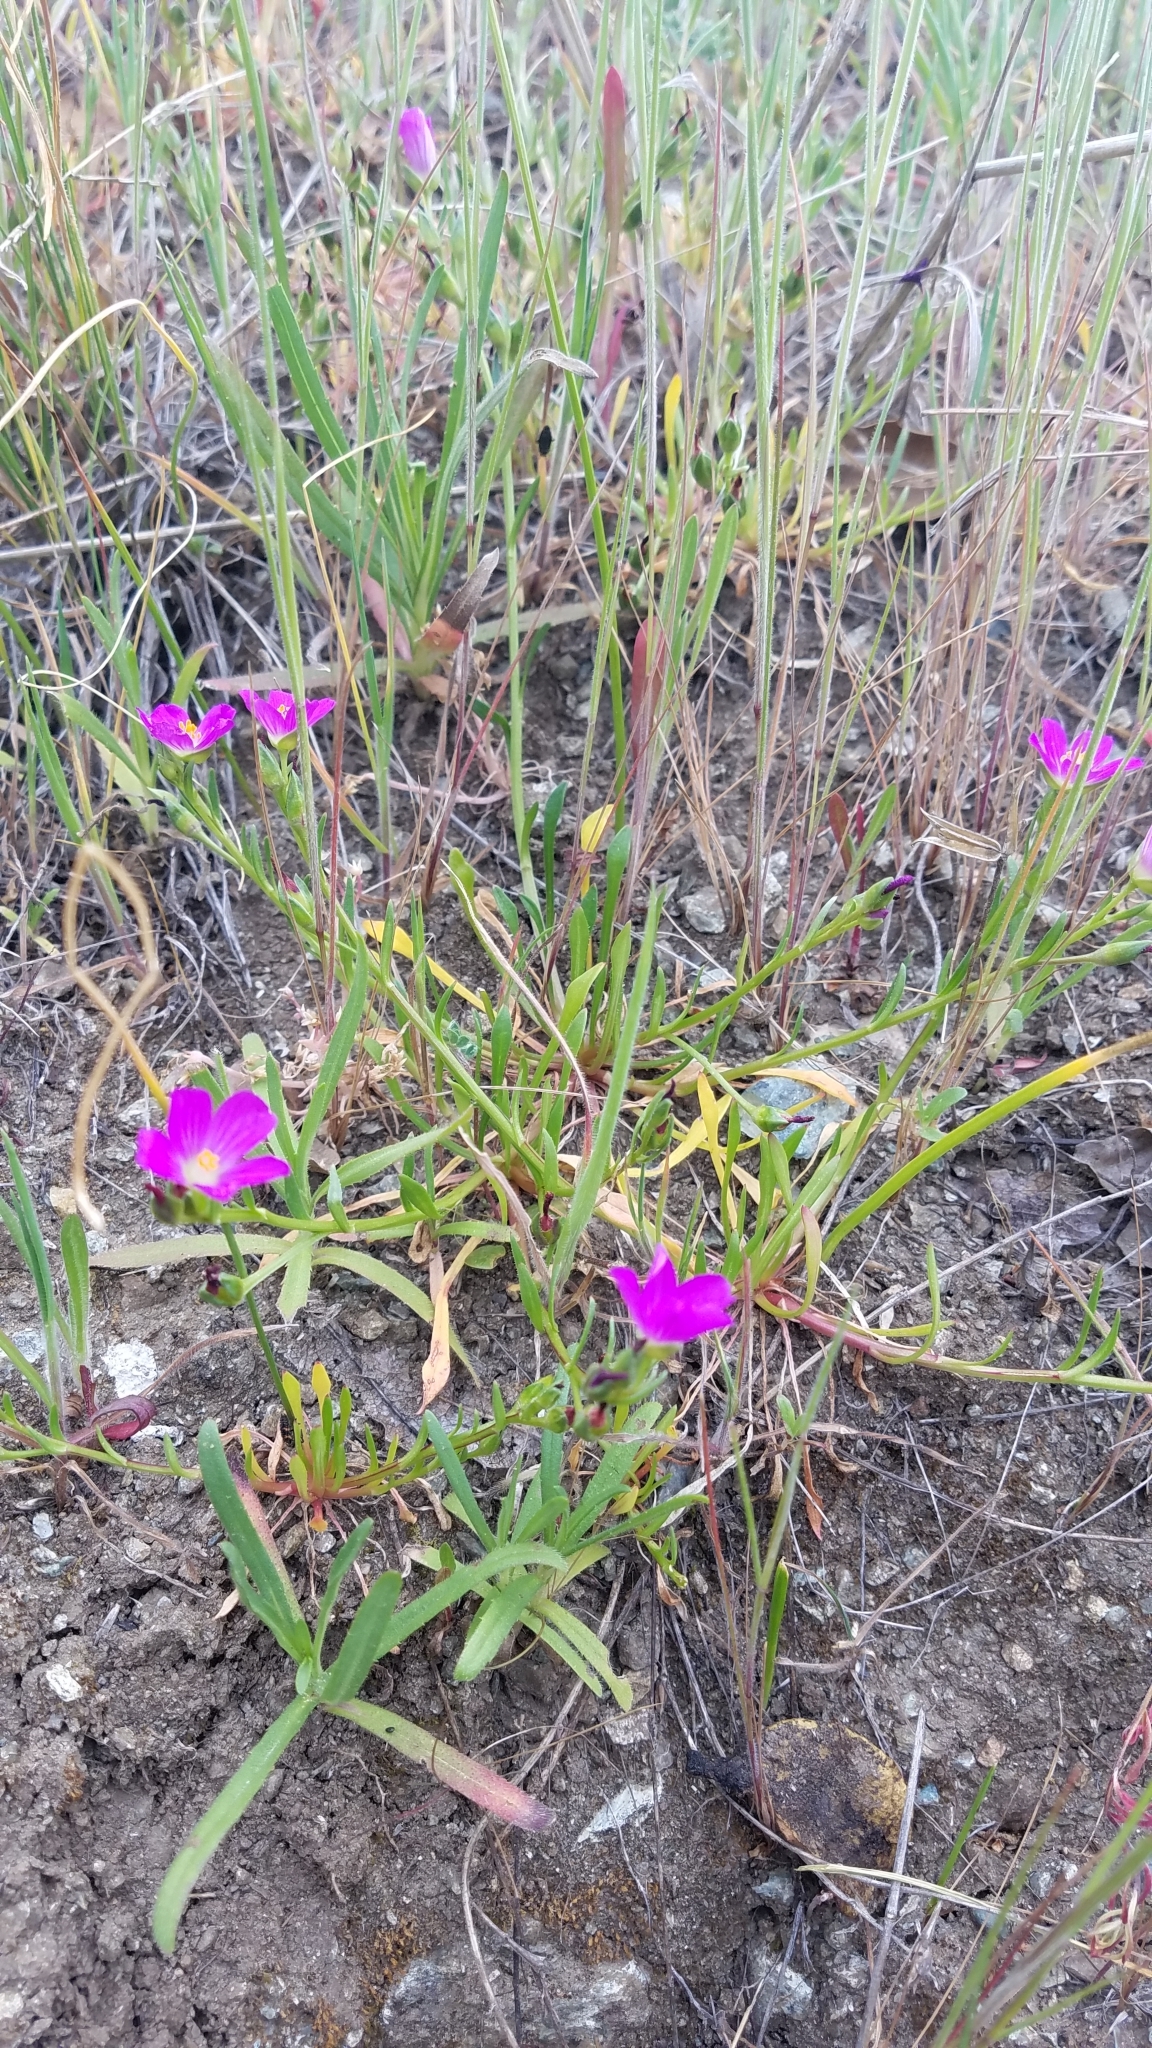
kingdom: Plantae
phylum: Tracheophyta
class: Magnoliopsida
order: Caryophyllales
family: Montiaceae
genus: Calandrinia
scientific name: Calandrinia menziesii
